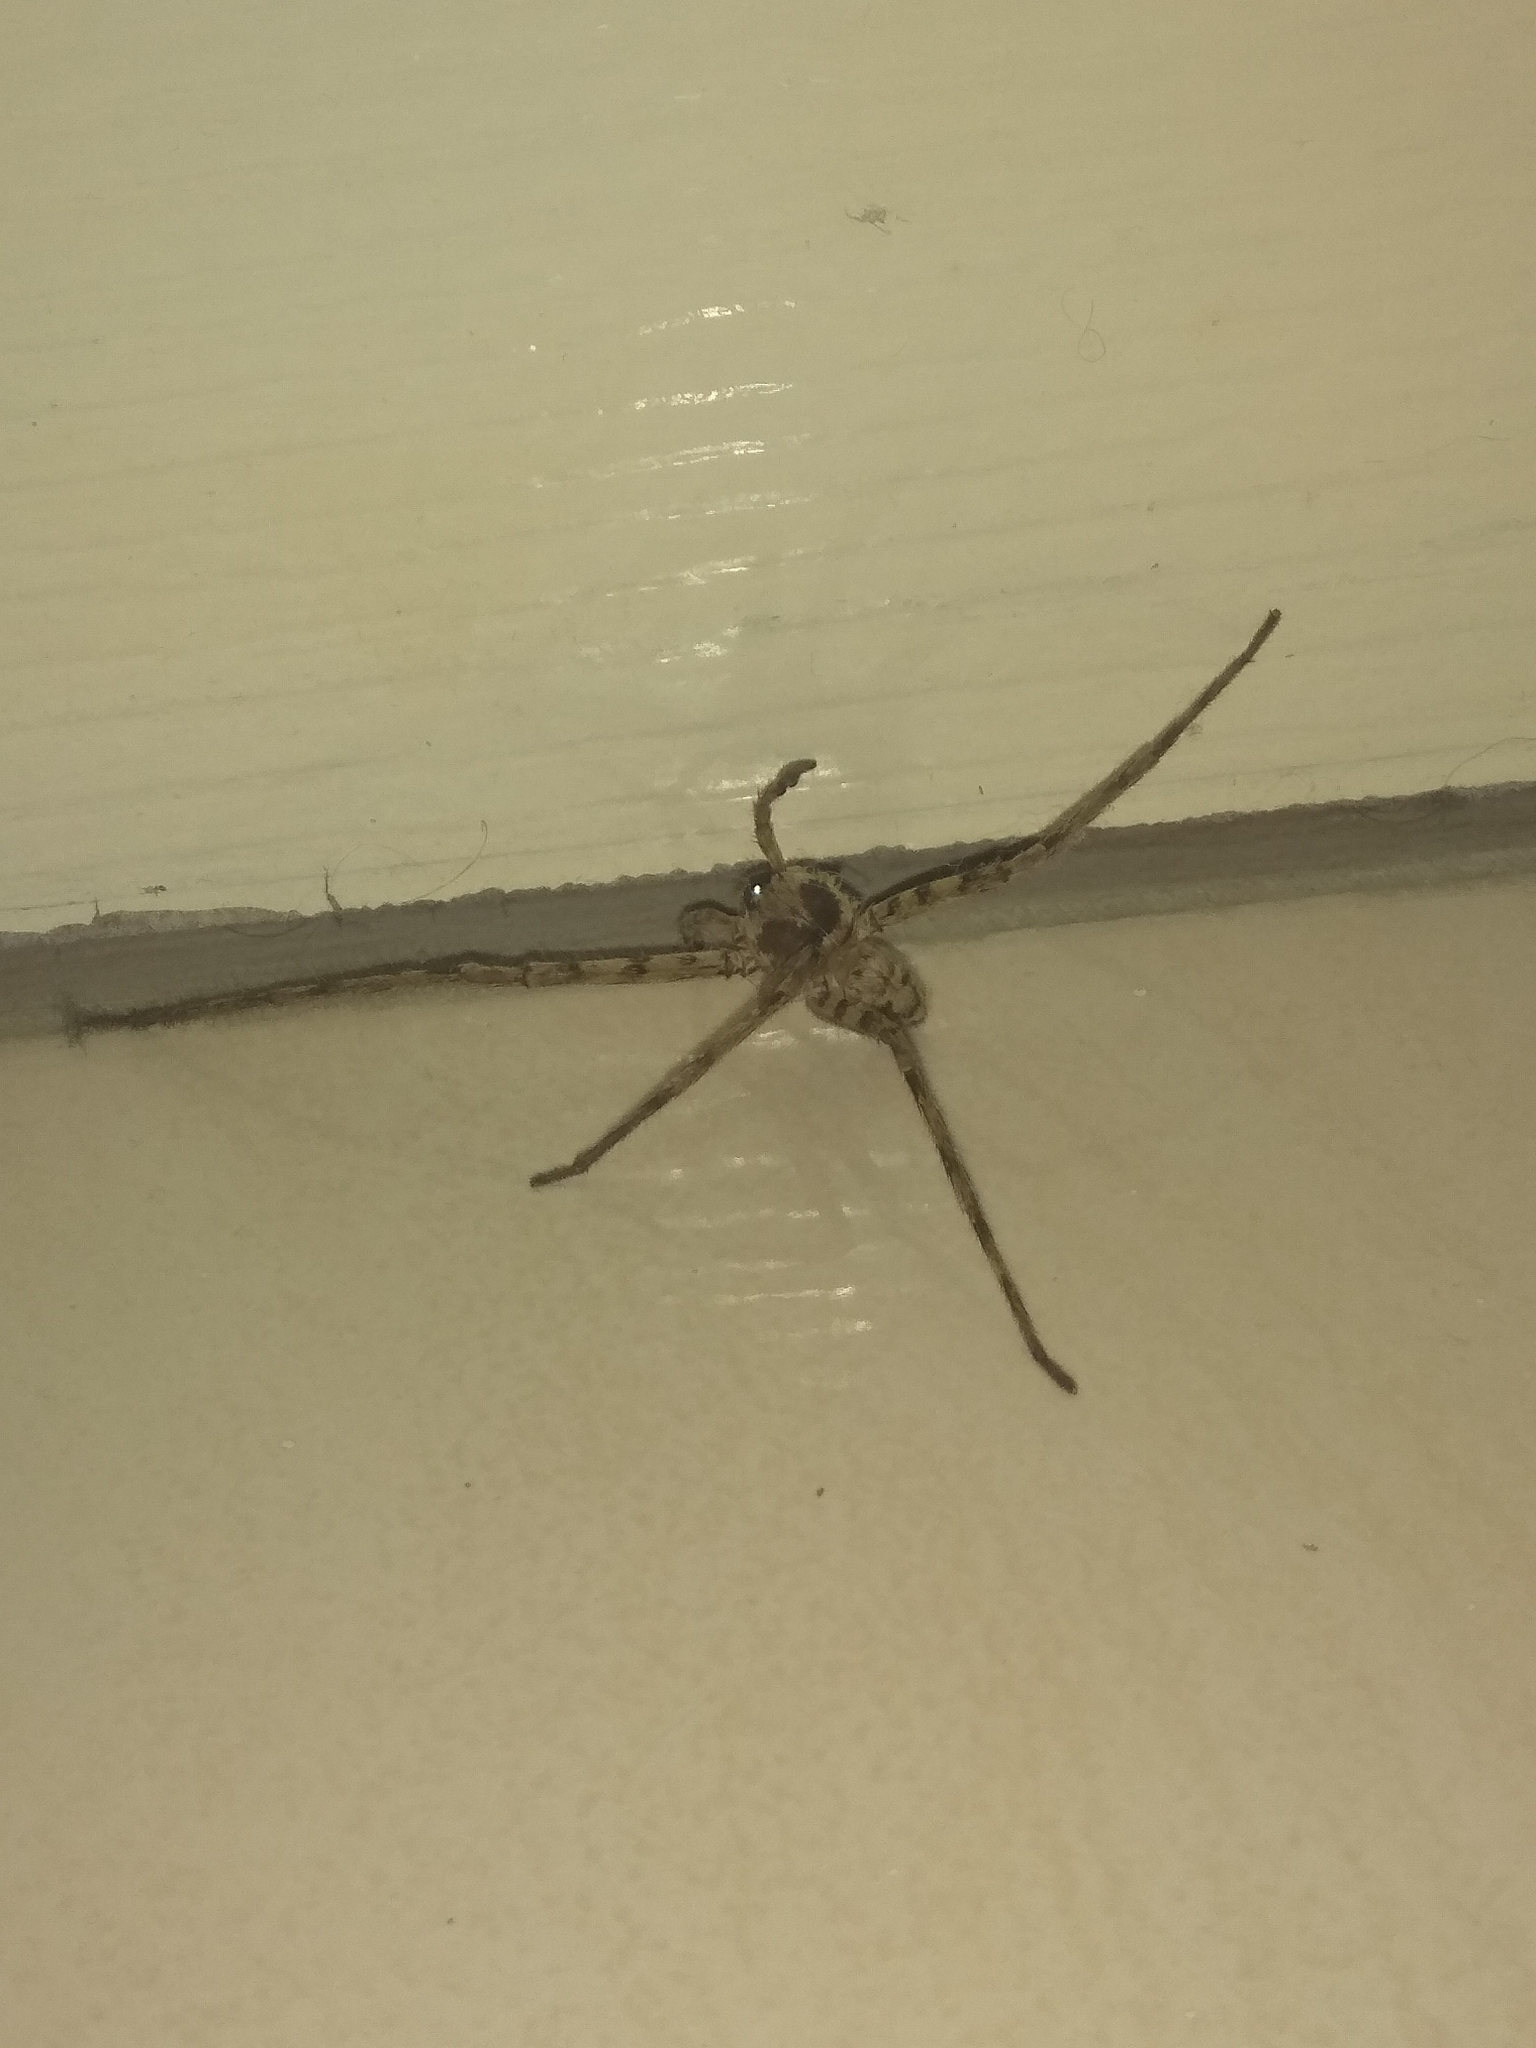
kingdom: Animalia
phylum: Arthropoda
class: Arachnida
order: Araneae
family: Sparassidae
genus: Heteropoda
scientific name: Heteropoda venatoria
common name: Huntsman spider
